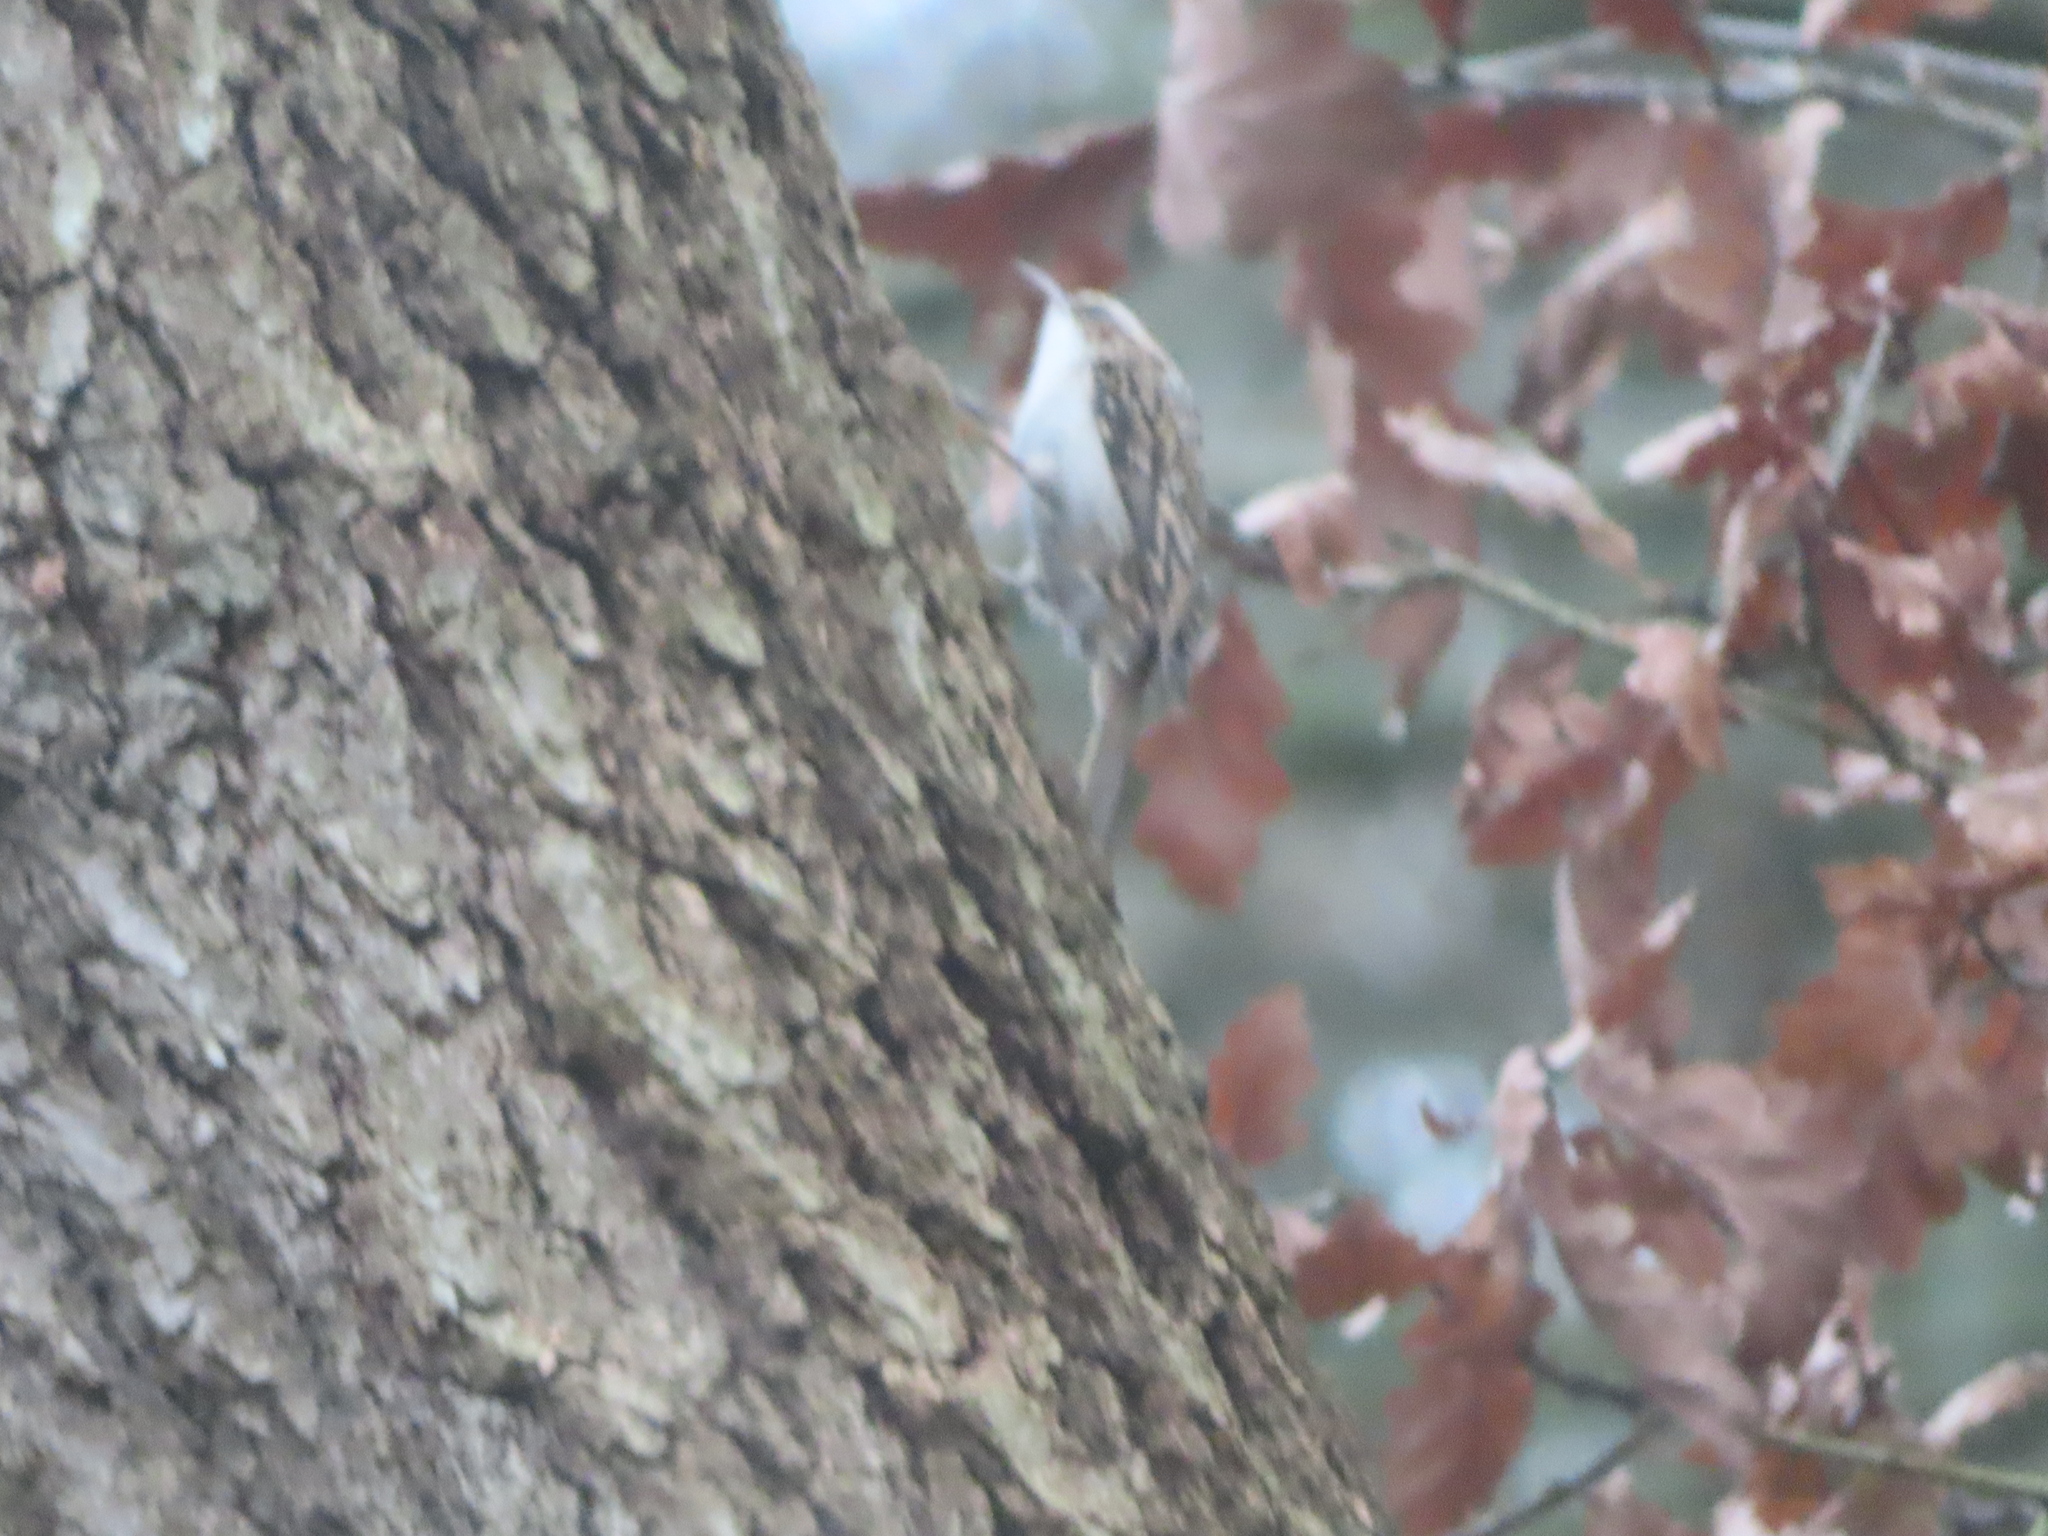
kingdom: Animalia
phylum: Chordata
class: Aves
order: Passeriformes
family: Certhiidae
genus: Certhia
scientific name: Certhia familiaris
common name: Eurasian treecreeper
